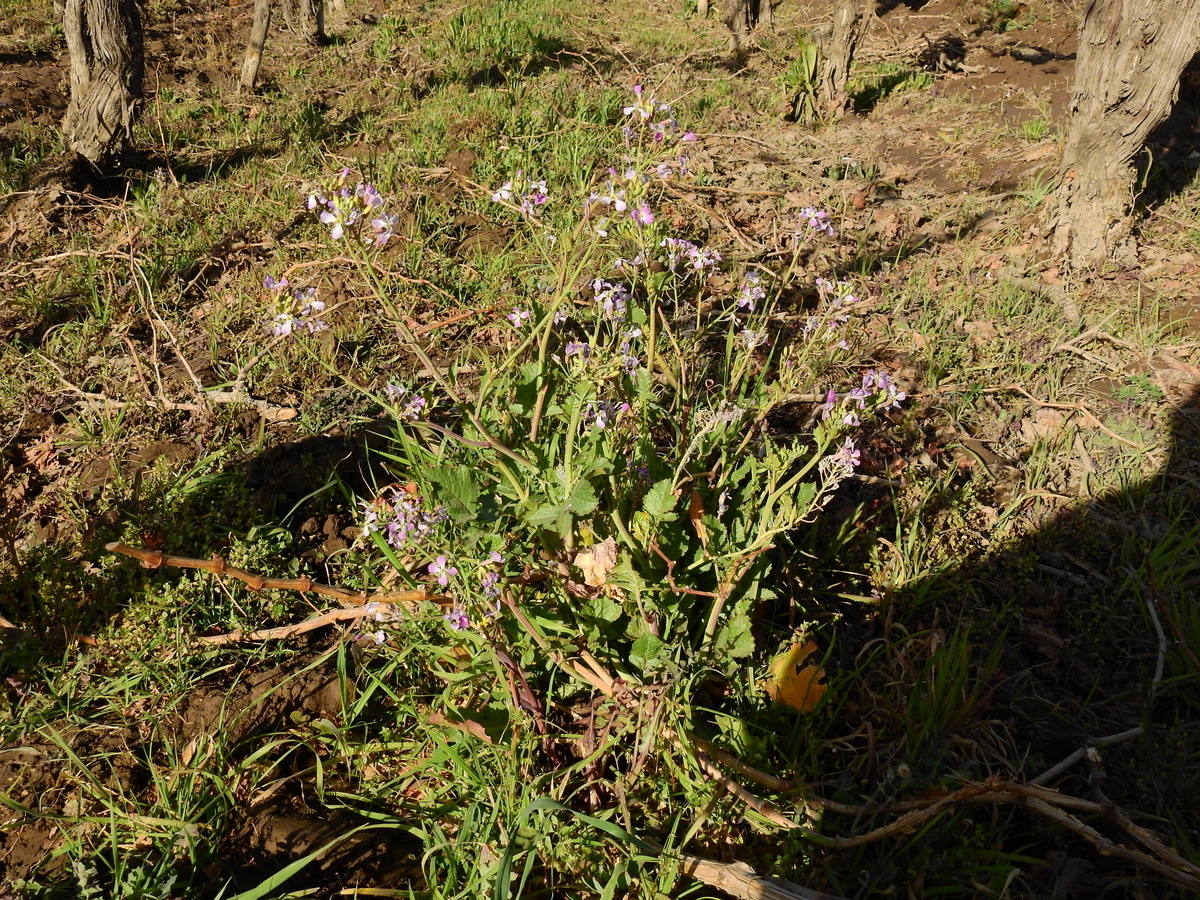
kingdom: Plantae
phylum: Tracheophyta
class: Magnoliopsida
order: Brassicales
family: Brassicaceae
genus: Raphanus
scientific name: Raphanus sativus
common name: Cultivated radish
